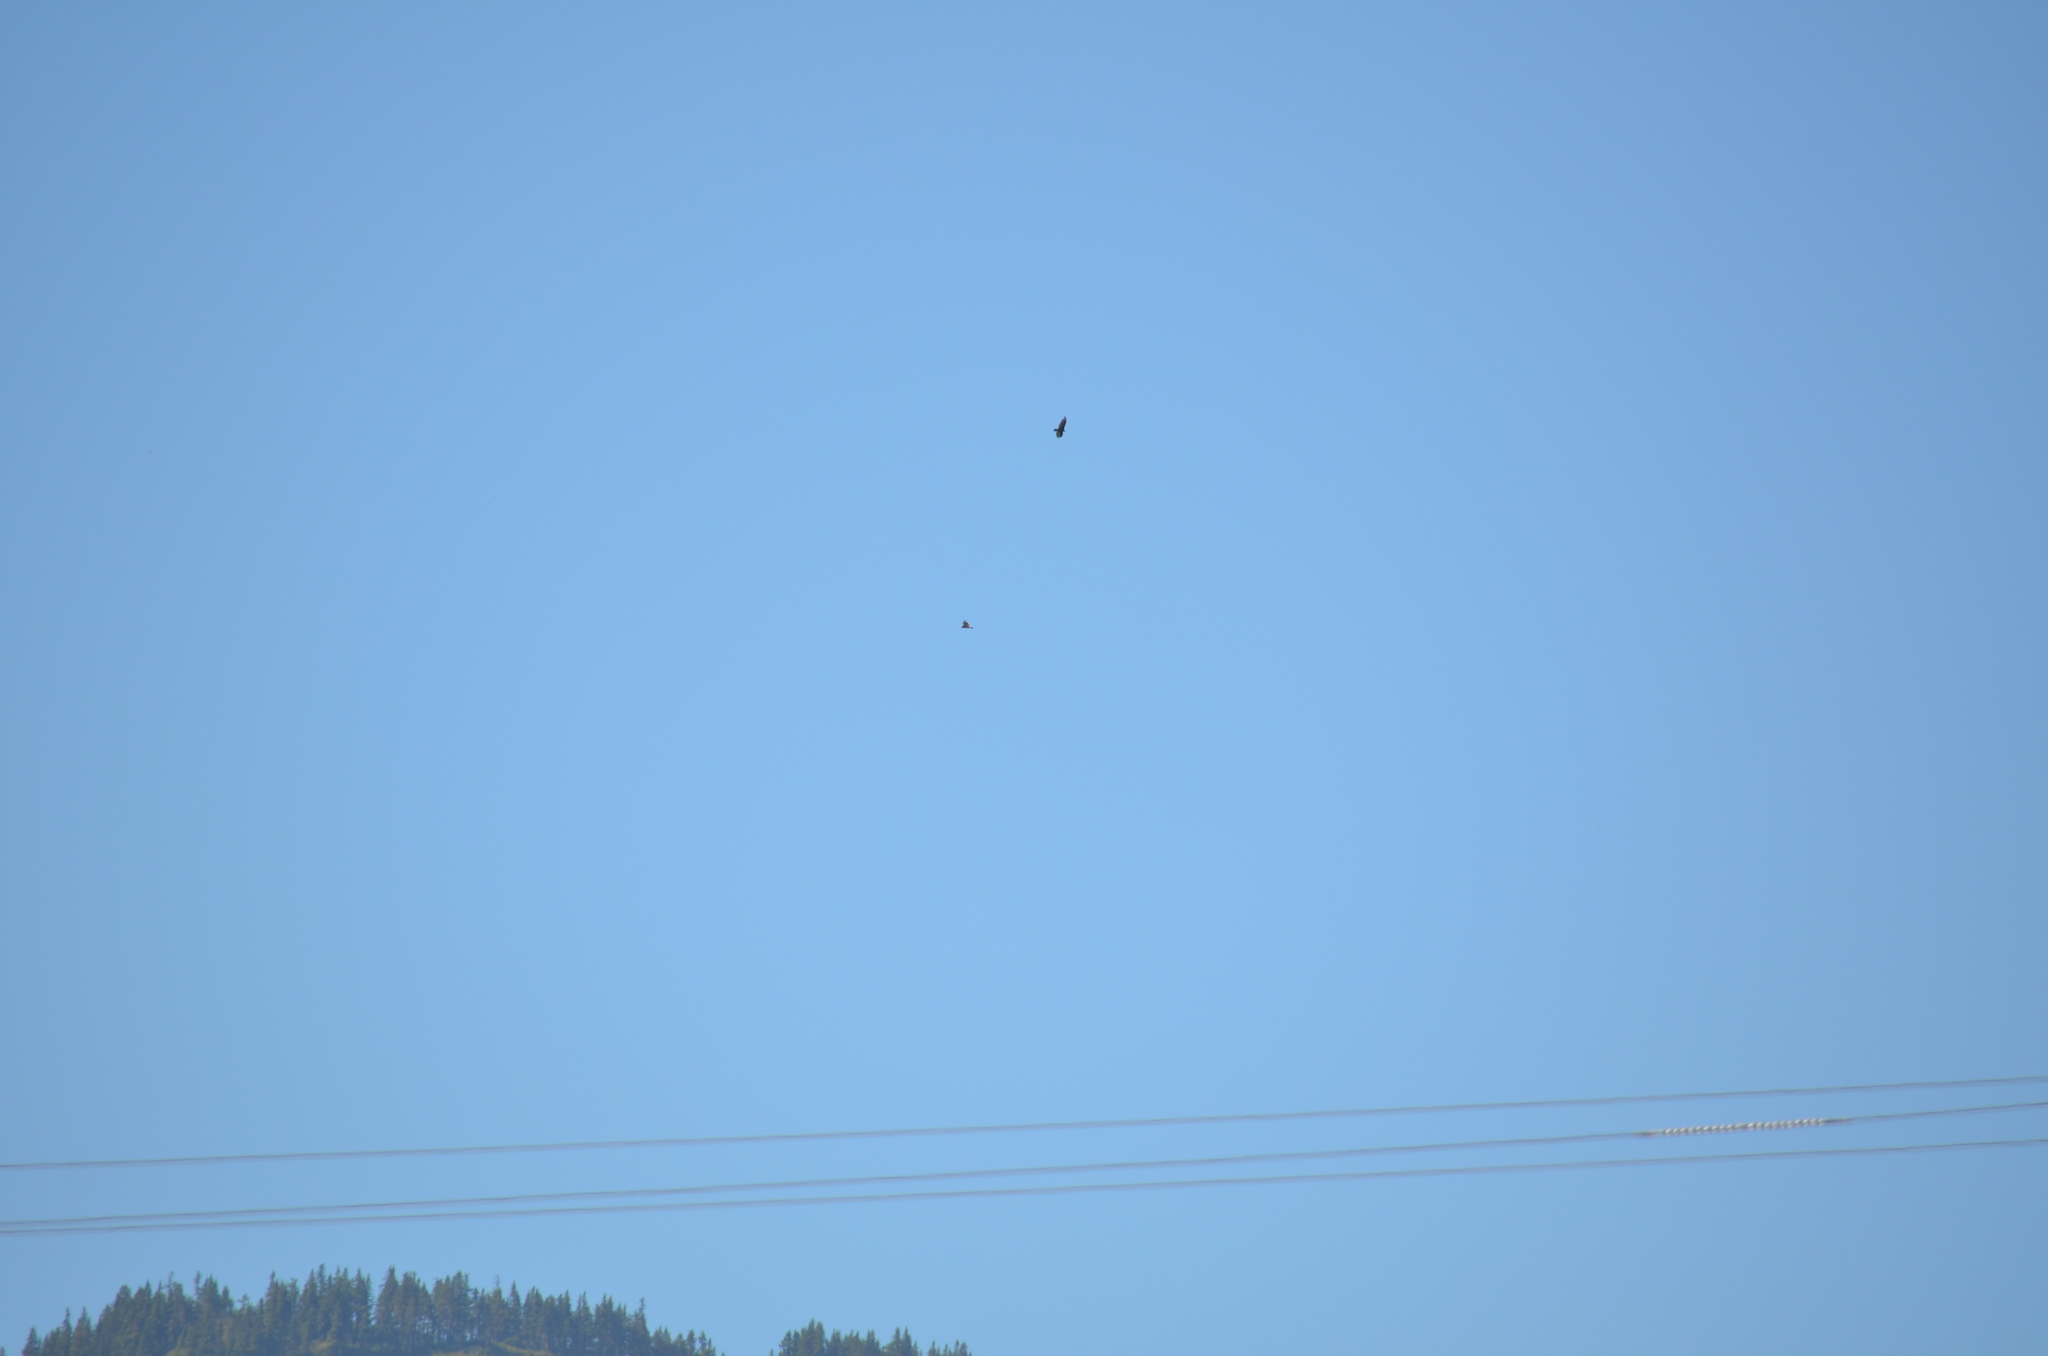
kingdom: Animalia
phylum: Chordata
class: Aves
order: Accipitriformes
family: Cathartidae
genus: Cathartes
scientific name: Cathartes aura
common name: Turkey vulture
